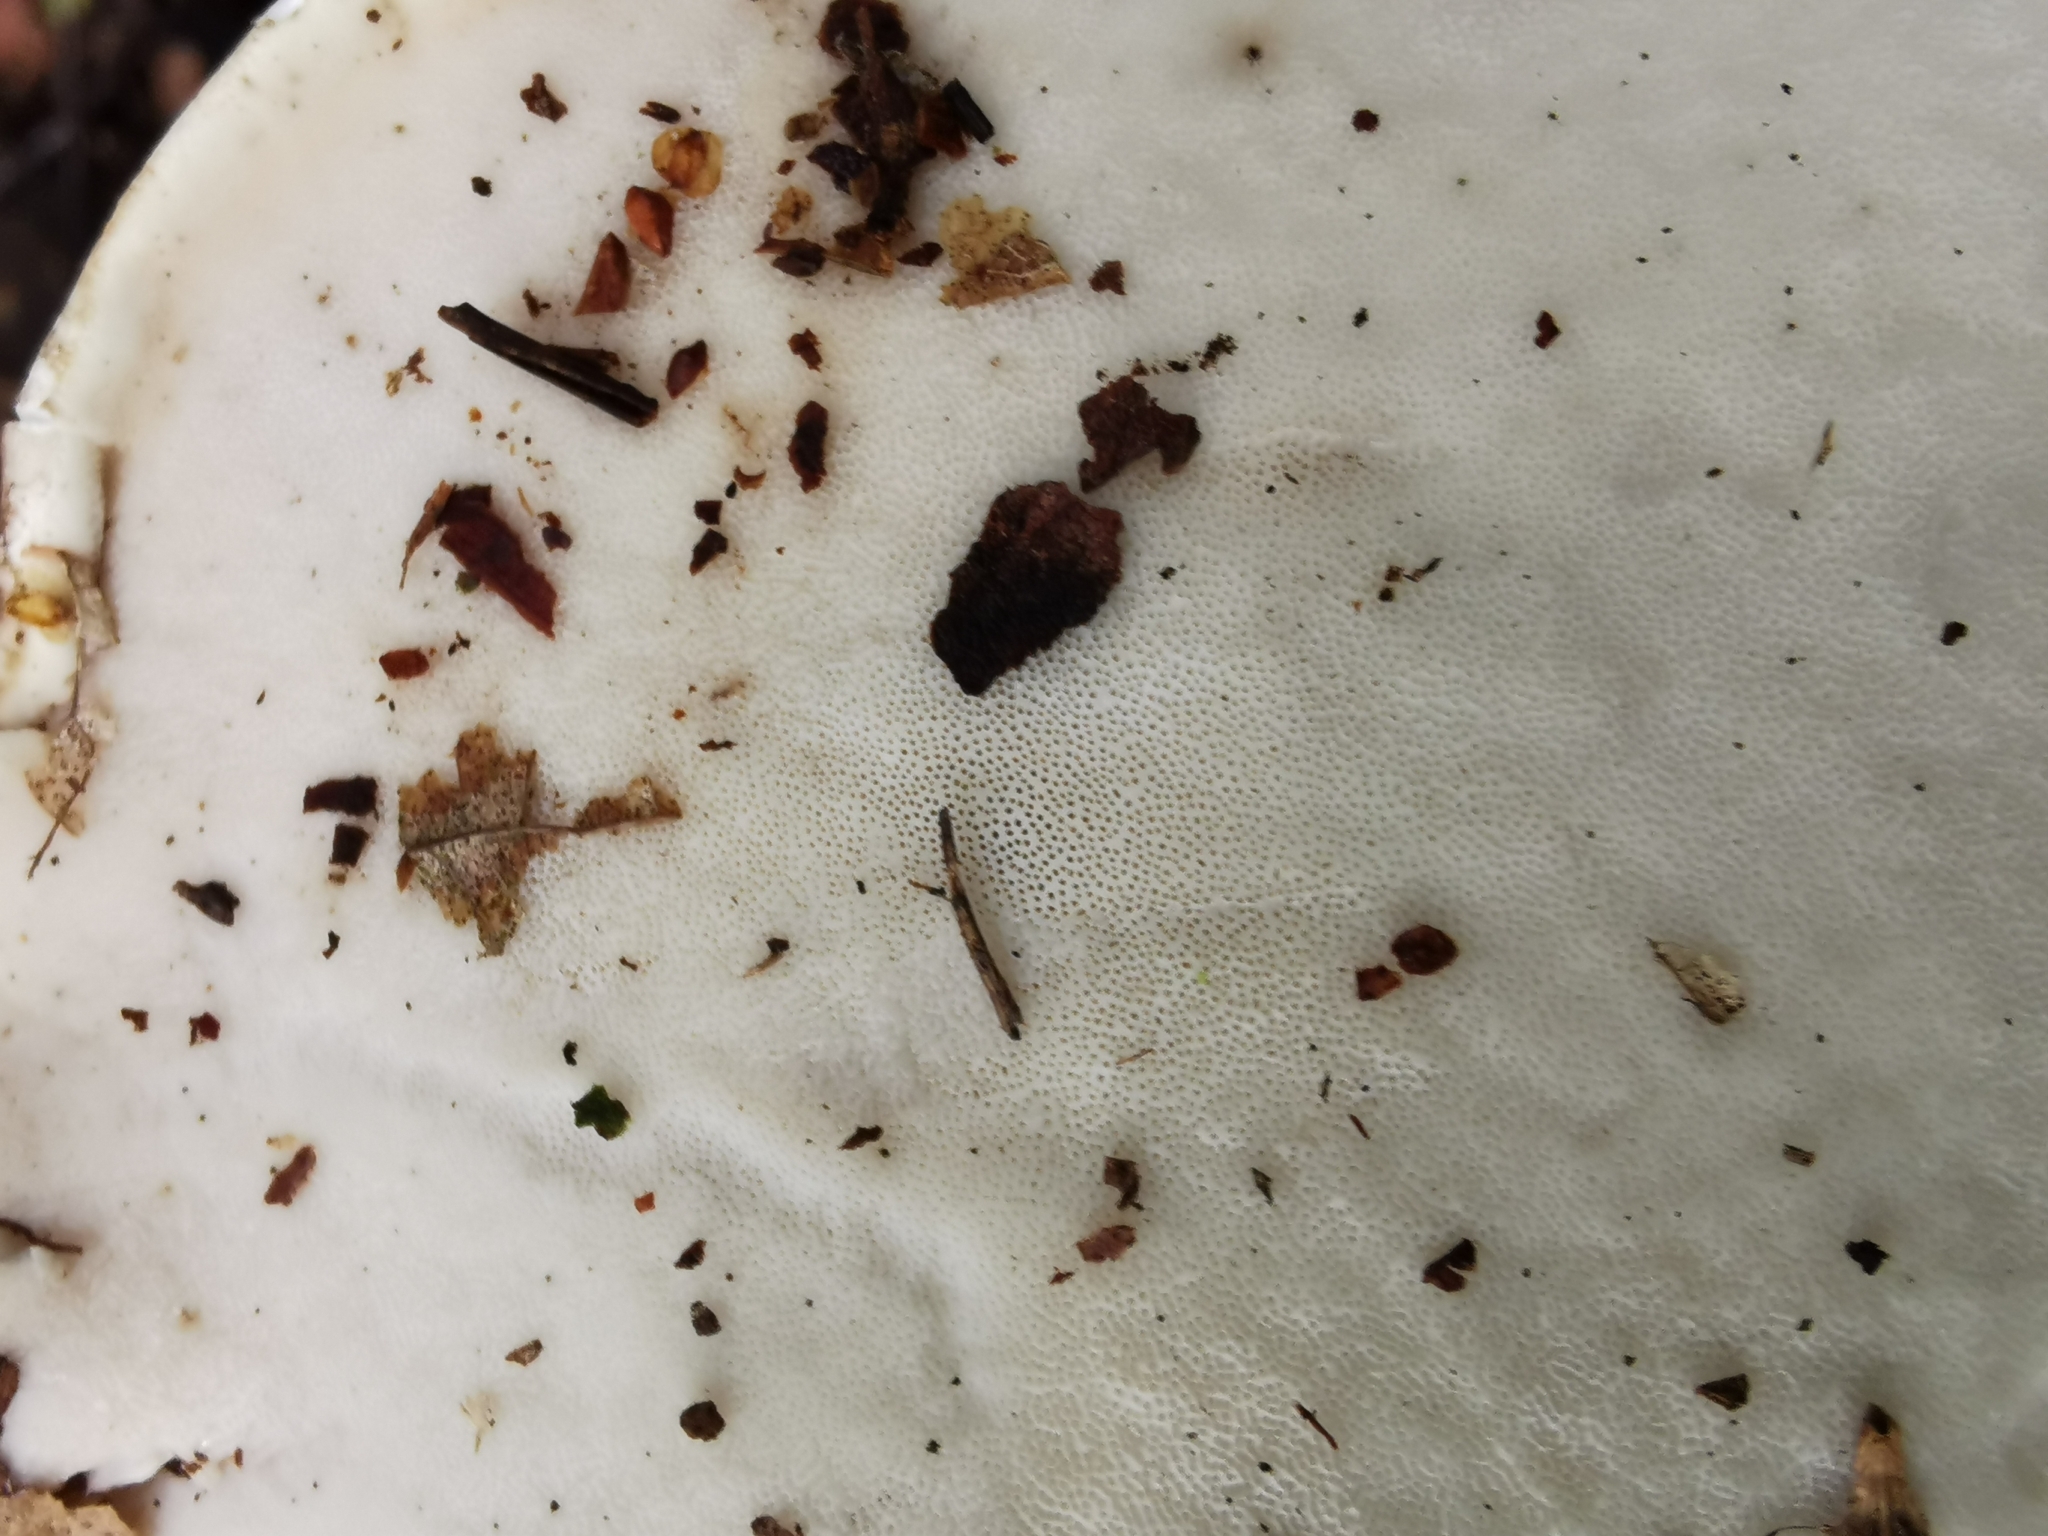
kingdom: Fungi
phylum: Basidiomycota
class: Agaricomycetes
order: Polyporales
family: Fomitopsidaceae
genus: Fomitopsis
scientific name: Fomitopsis betulina
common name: Birch polypore
